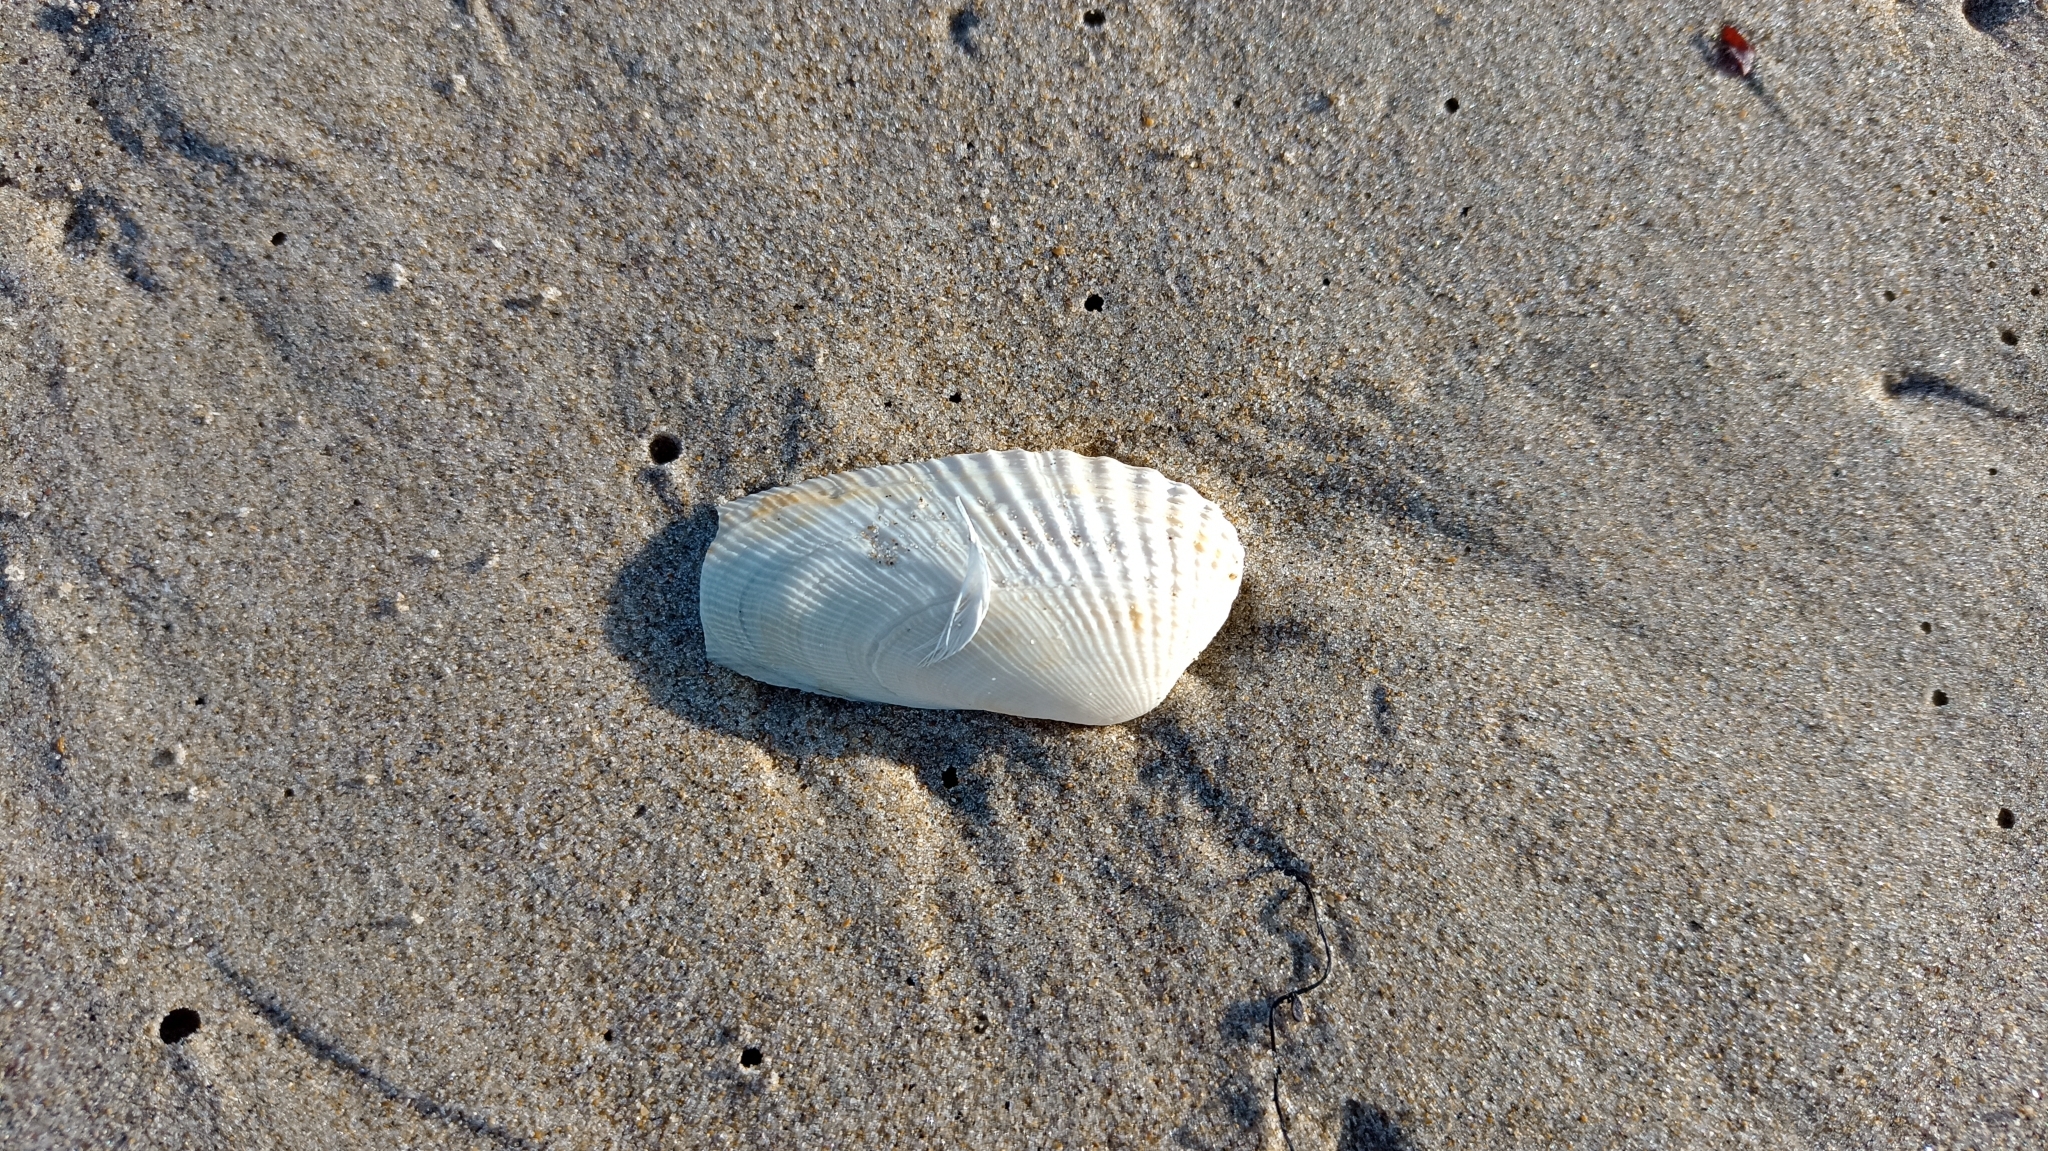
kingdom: Animalia
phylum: Mollusca
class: Bivalvia
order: Venerida
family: Veneridae
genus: Petricolaria
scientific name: Petricolaria pholadiformis
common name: American piddock
